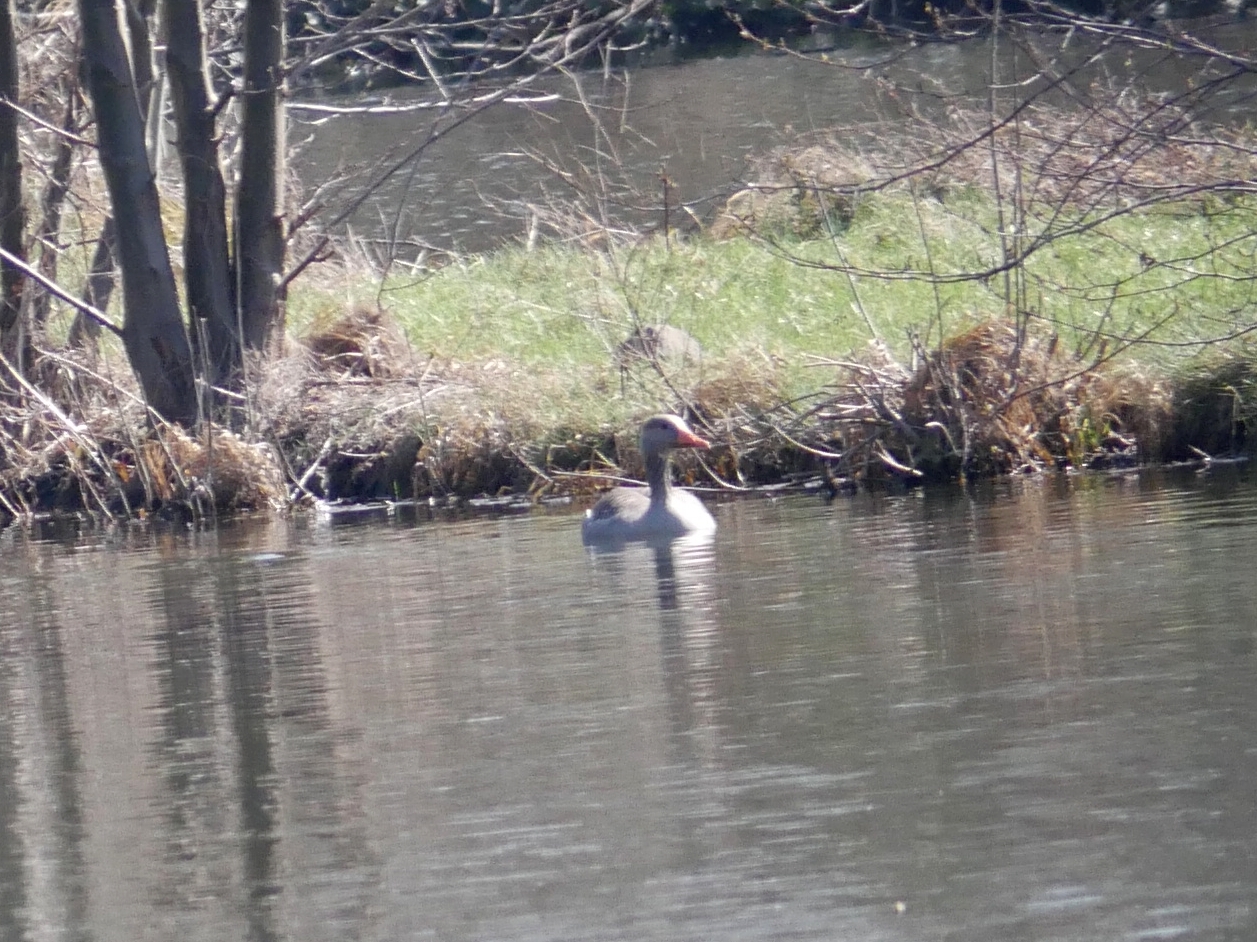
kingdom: Animalia
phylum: Chordata
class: Aves
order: Anseriformes
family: Anatidae
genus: Anser
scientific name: Anser anser
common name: Greylag goose
